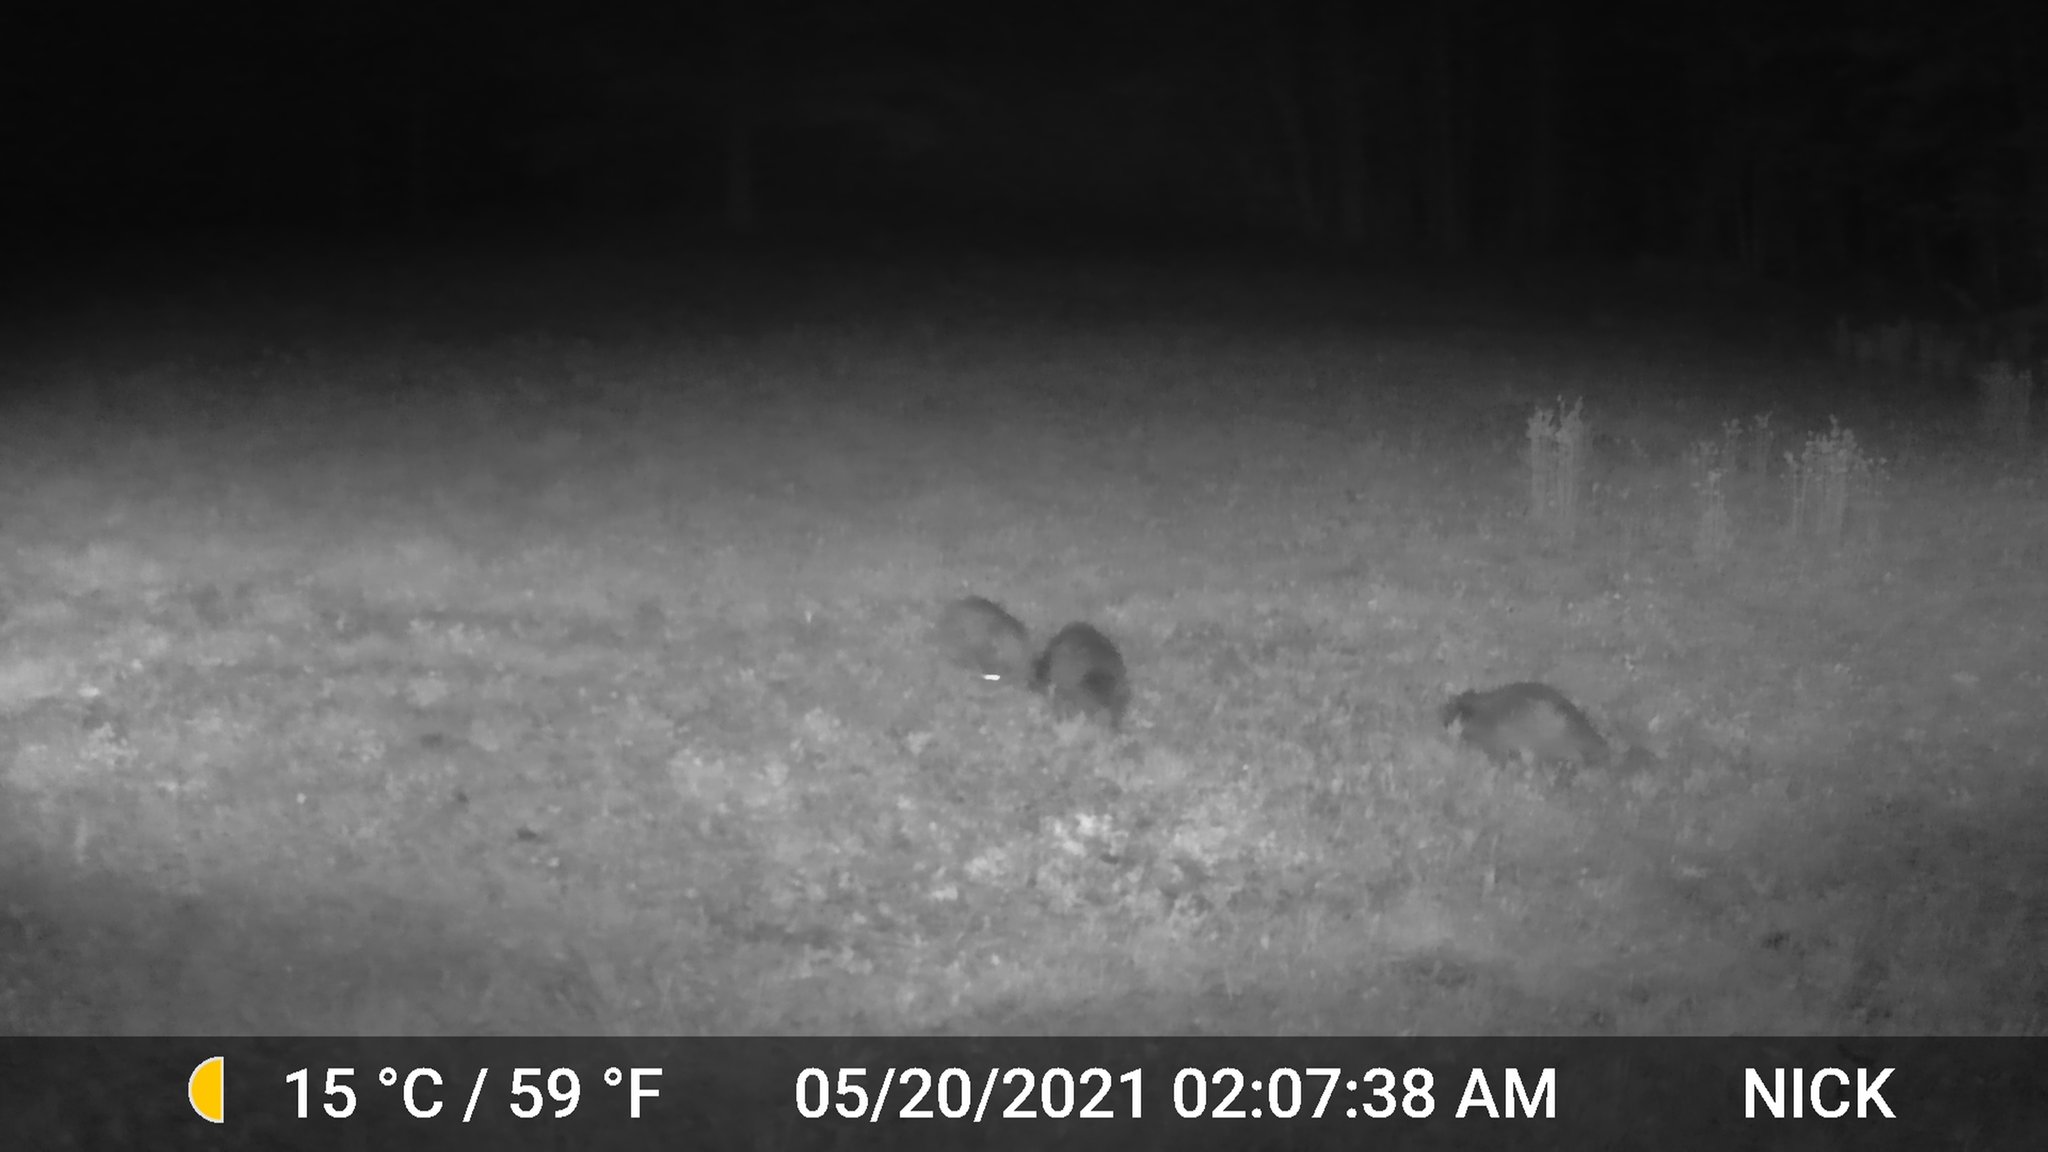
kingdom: Animalia
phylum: Chordata
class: Mammalia
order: Carnivora
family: Procyonidae
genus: Procyon
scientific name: Procyon lotor
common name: Raccoon
